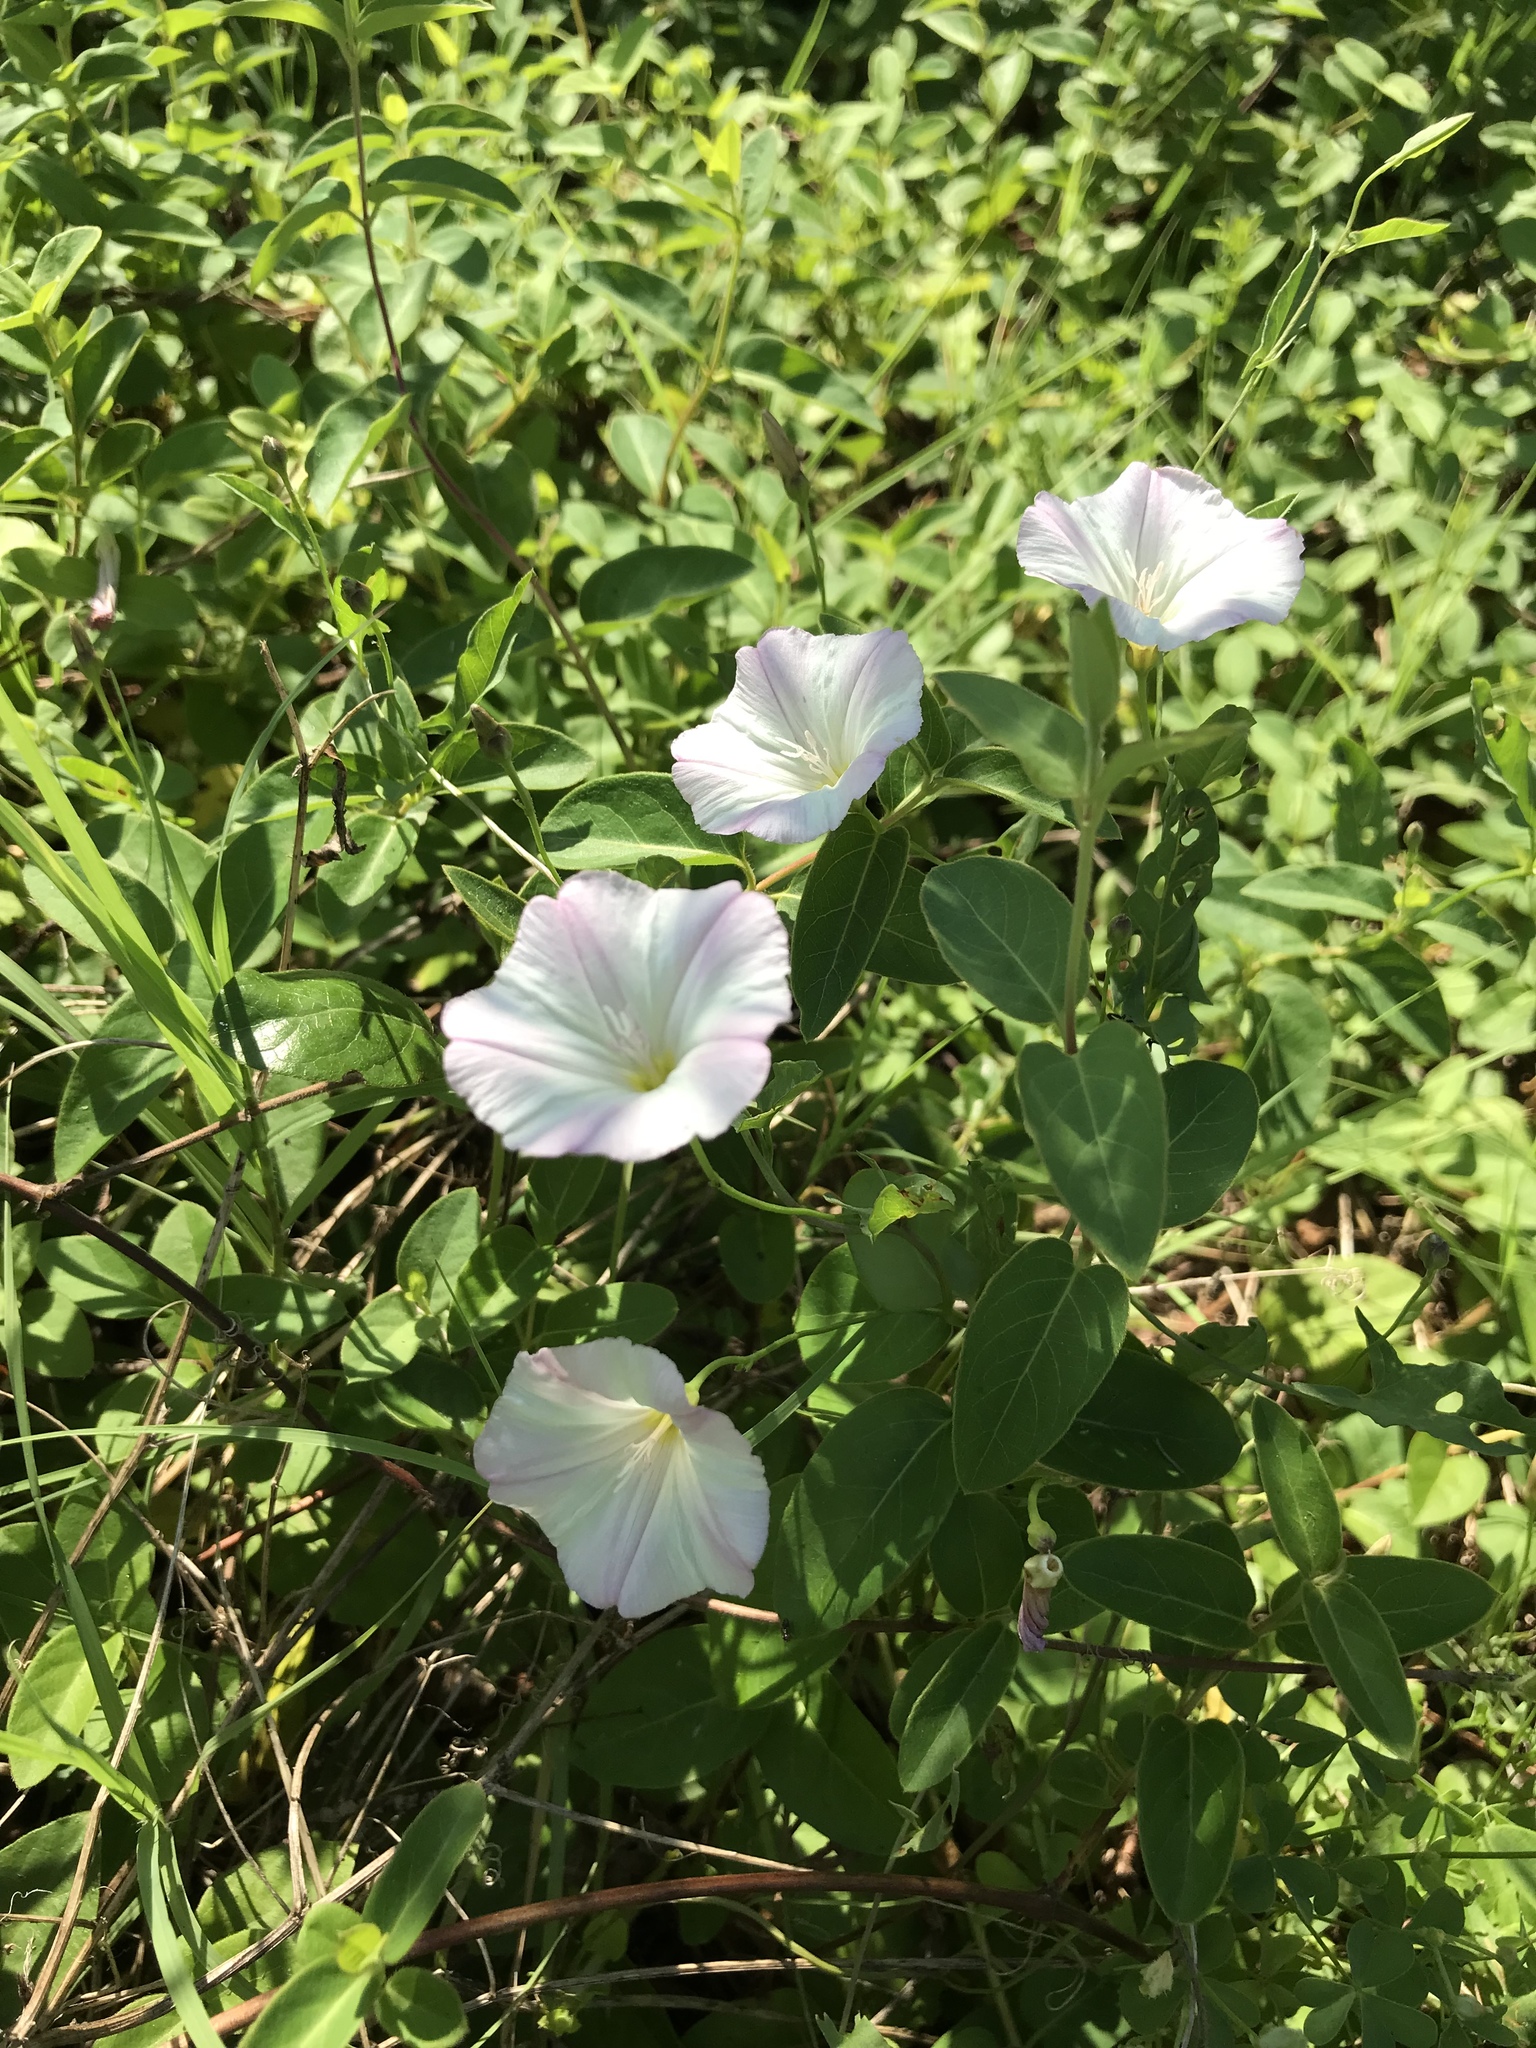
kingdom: Plantae
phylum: Tracheophyta
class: Magnoliopsida
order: Solanales
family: Convolvulaceae
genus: Convolvulus
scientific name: Convolvulus arvensis
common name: Field bindweed
